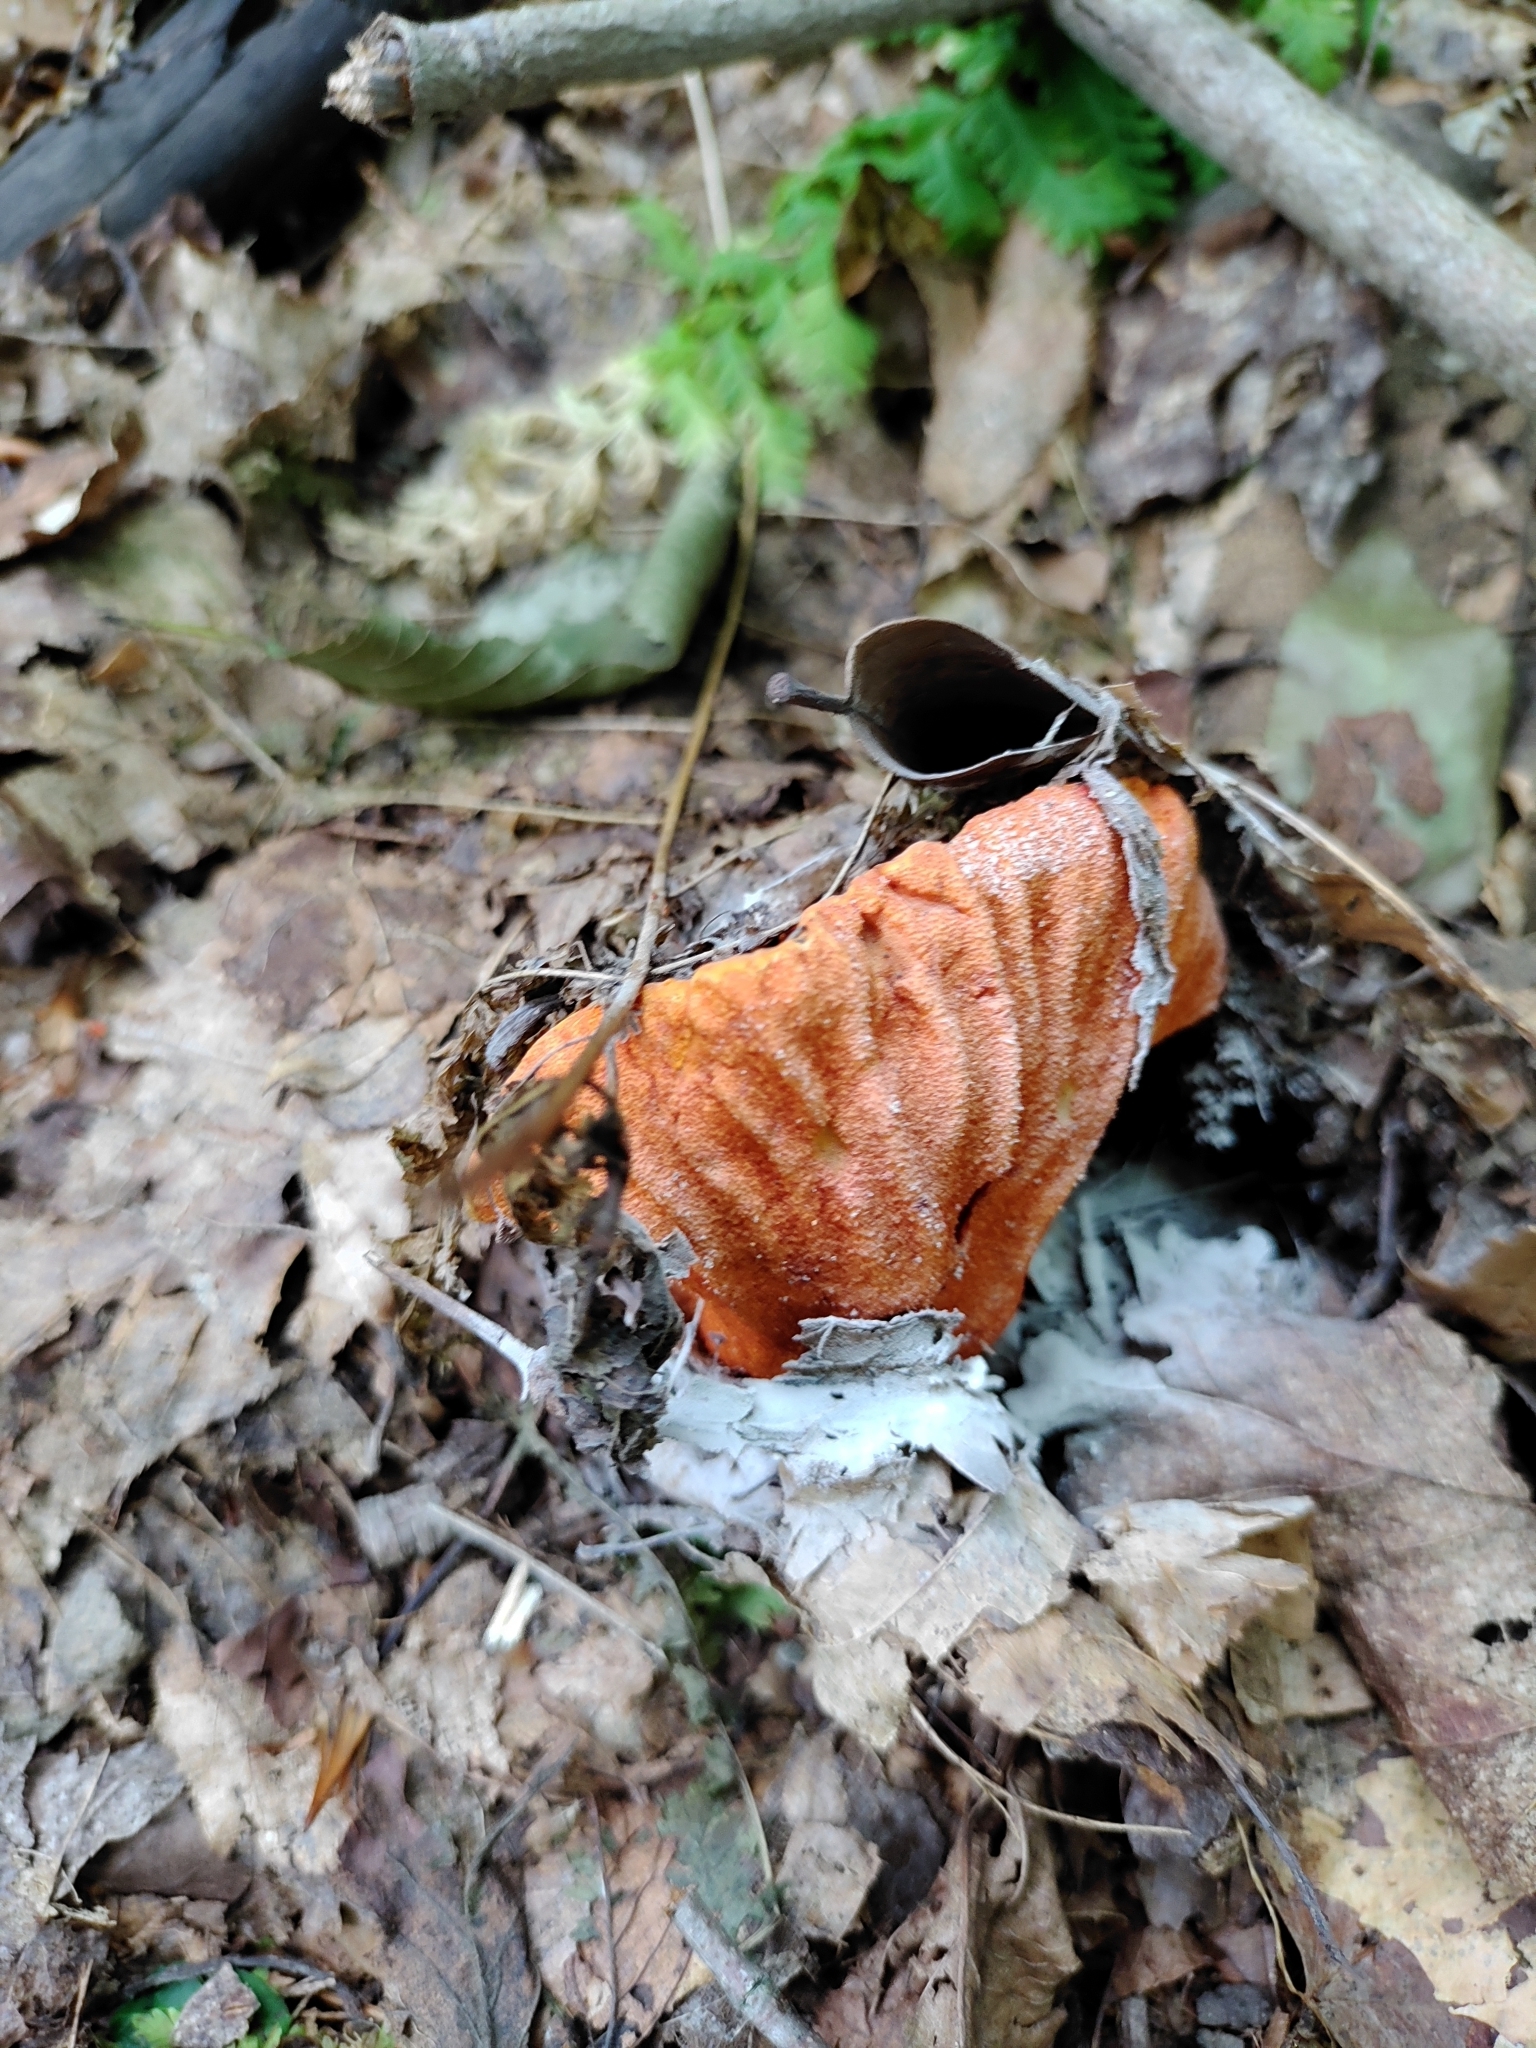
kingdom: Fungi
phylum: Ascomycota
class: Sordariomycetes
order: Hypocreales
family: Hypocreaceae
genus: Hypomyces
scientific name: Hypomyces lactifluorum
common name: Lobster mushroom
